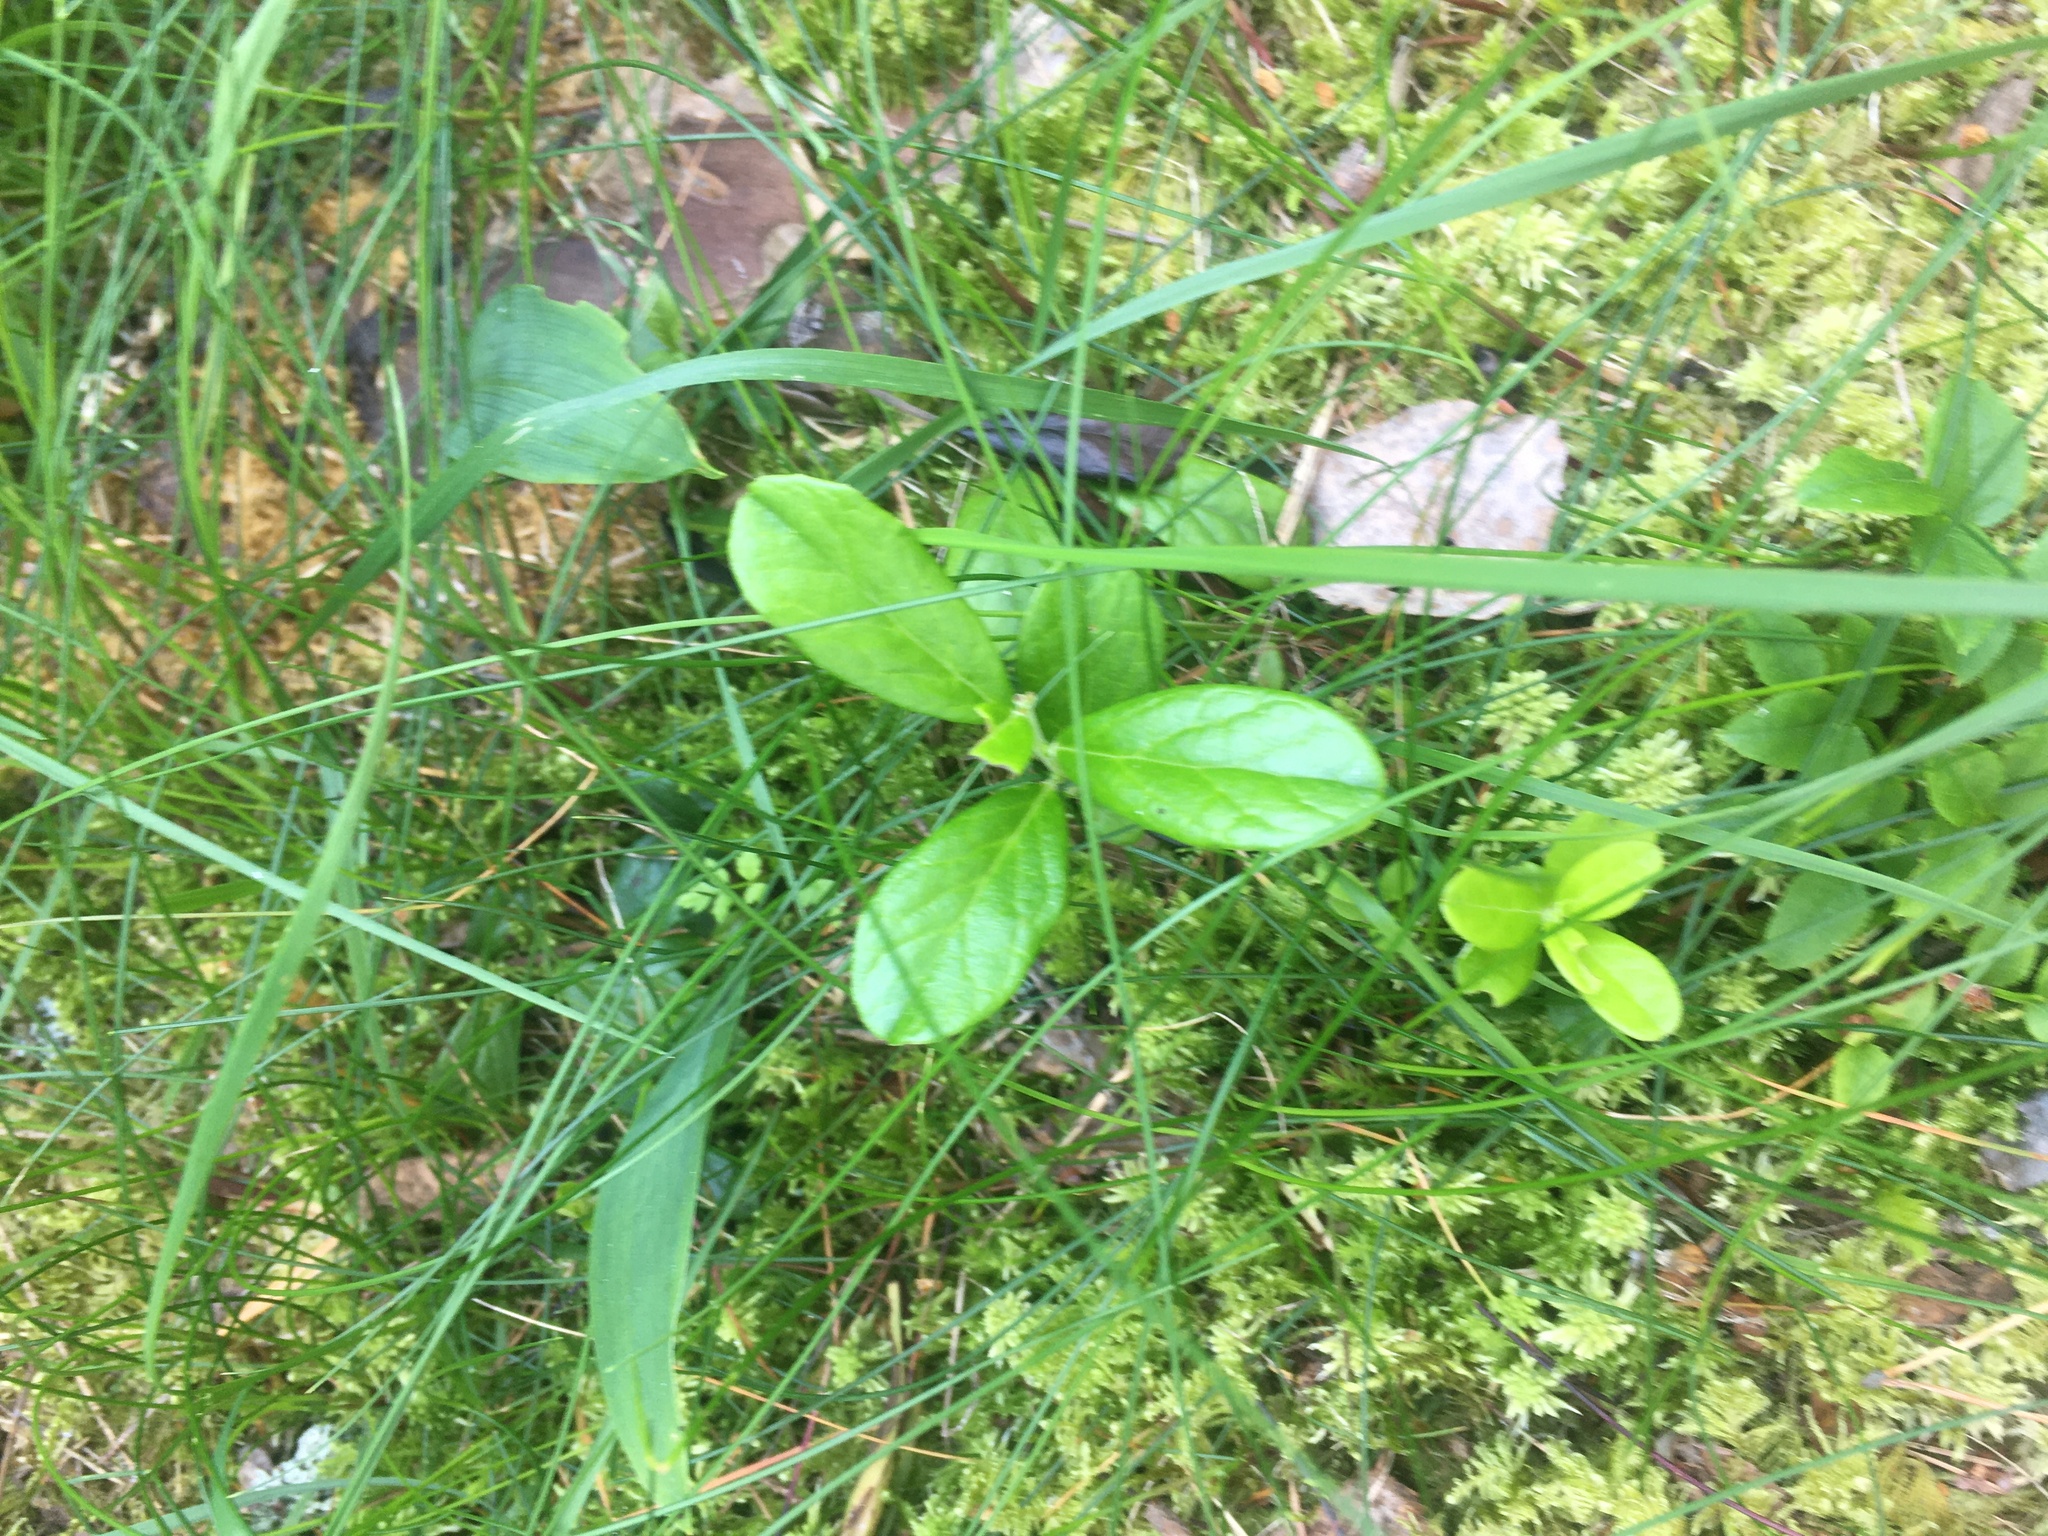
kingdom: Plantae
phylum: Tracheophyta
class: Magnoliopsida
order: Ericales
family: Ericaceae
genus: Vaccinium
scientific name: Vaccinium vitis-idaea
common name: Cowberry
